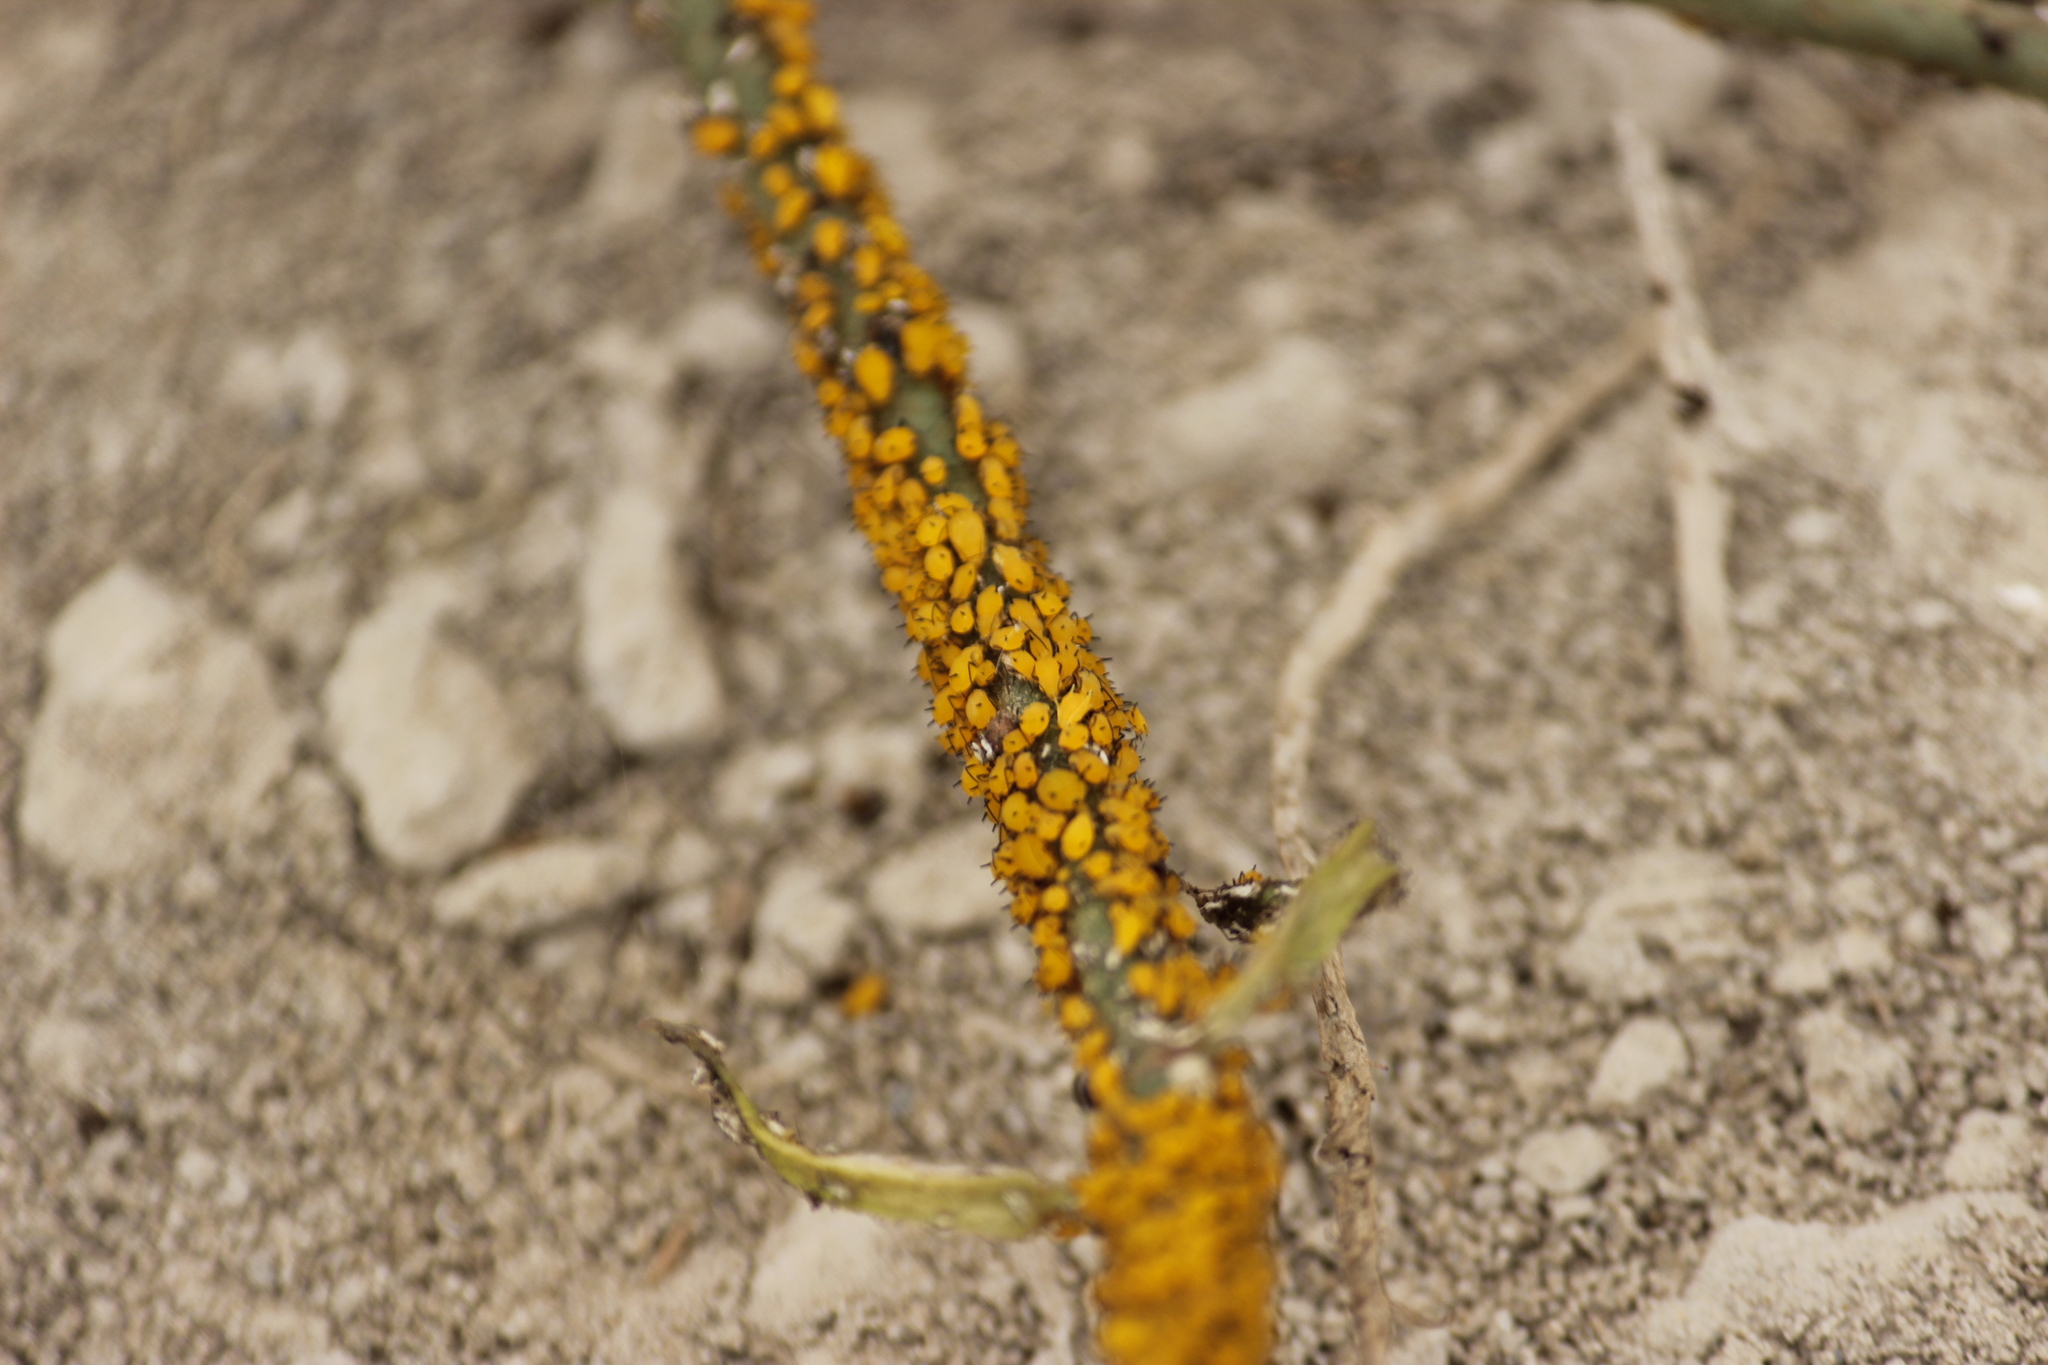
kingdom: Animalia
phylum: Arthropoda
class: Insecta
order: Hemiptera
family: Aphididae
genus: Aphis
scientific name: Aphis nerii
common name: Oleander aphid
